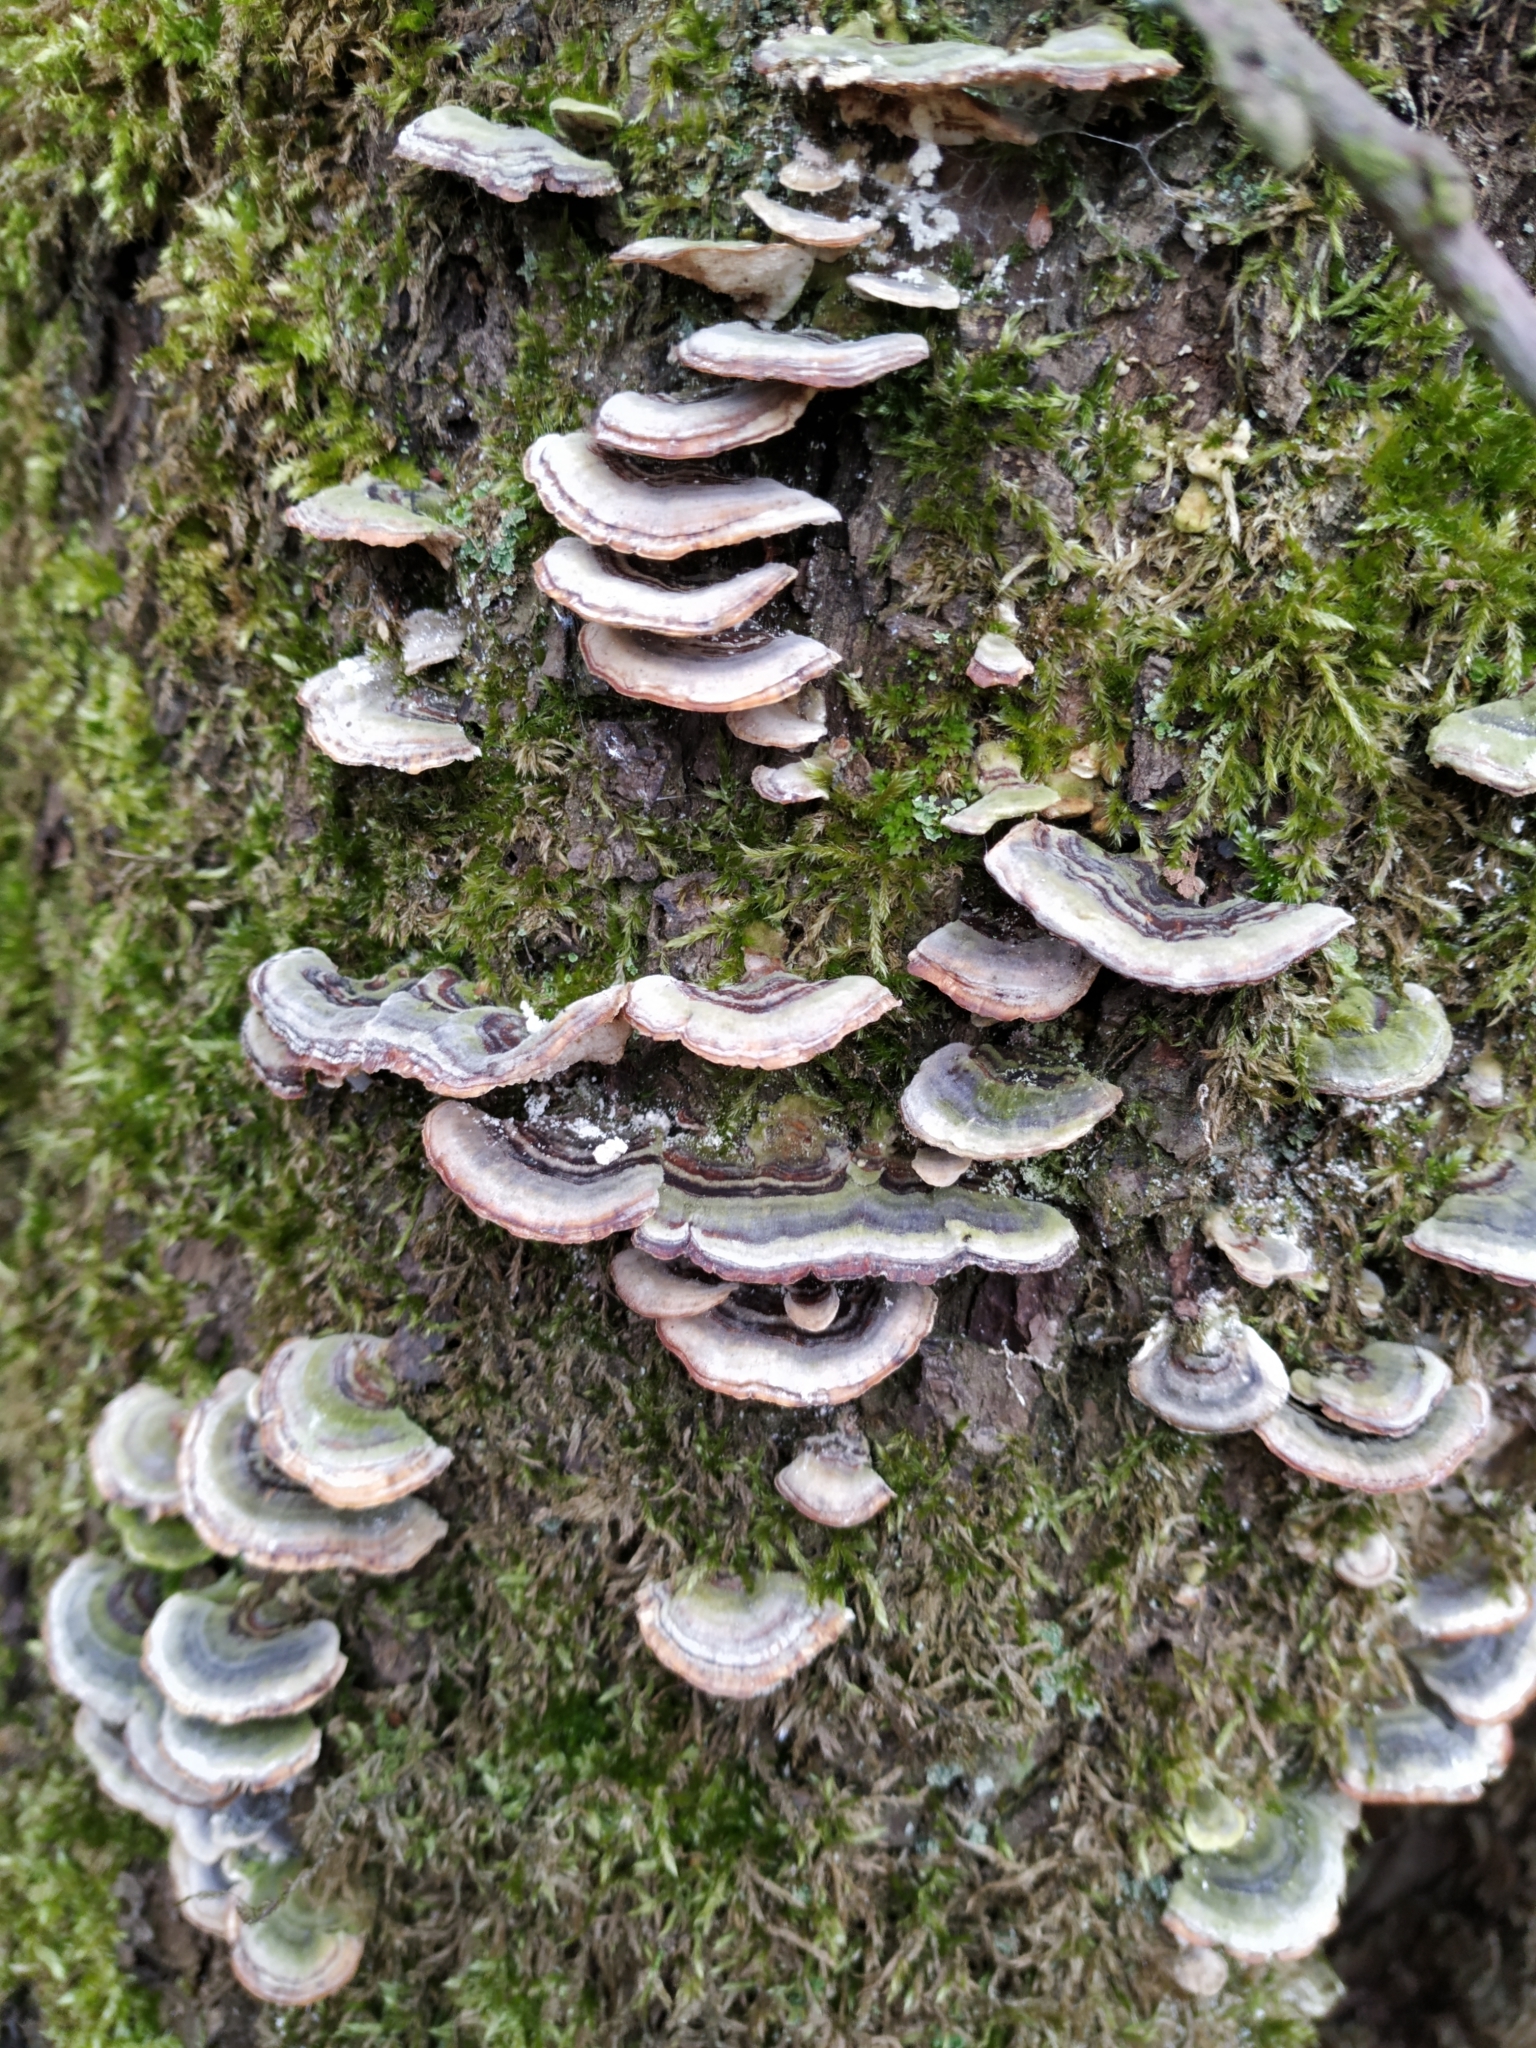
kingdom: Fungi
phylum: Basidiomycota
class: Agaricomycetes
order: Polyporales
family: Polyporaceae
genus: Trametes
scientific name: Trametes versicolor
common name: Turkeytail
